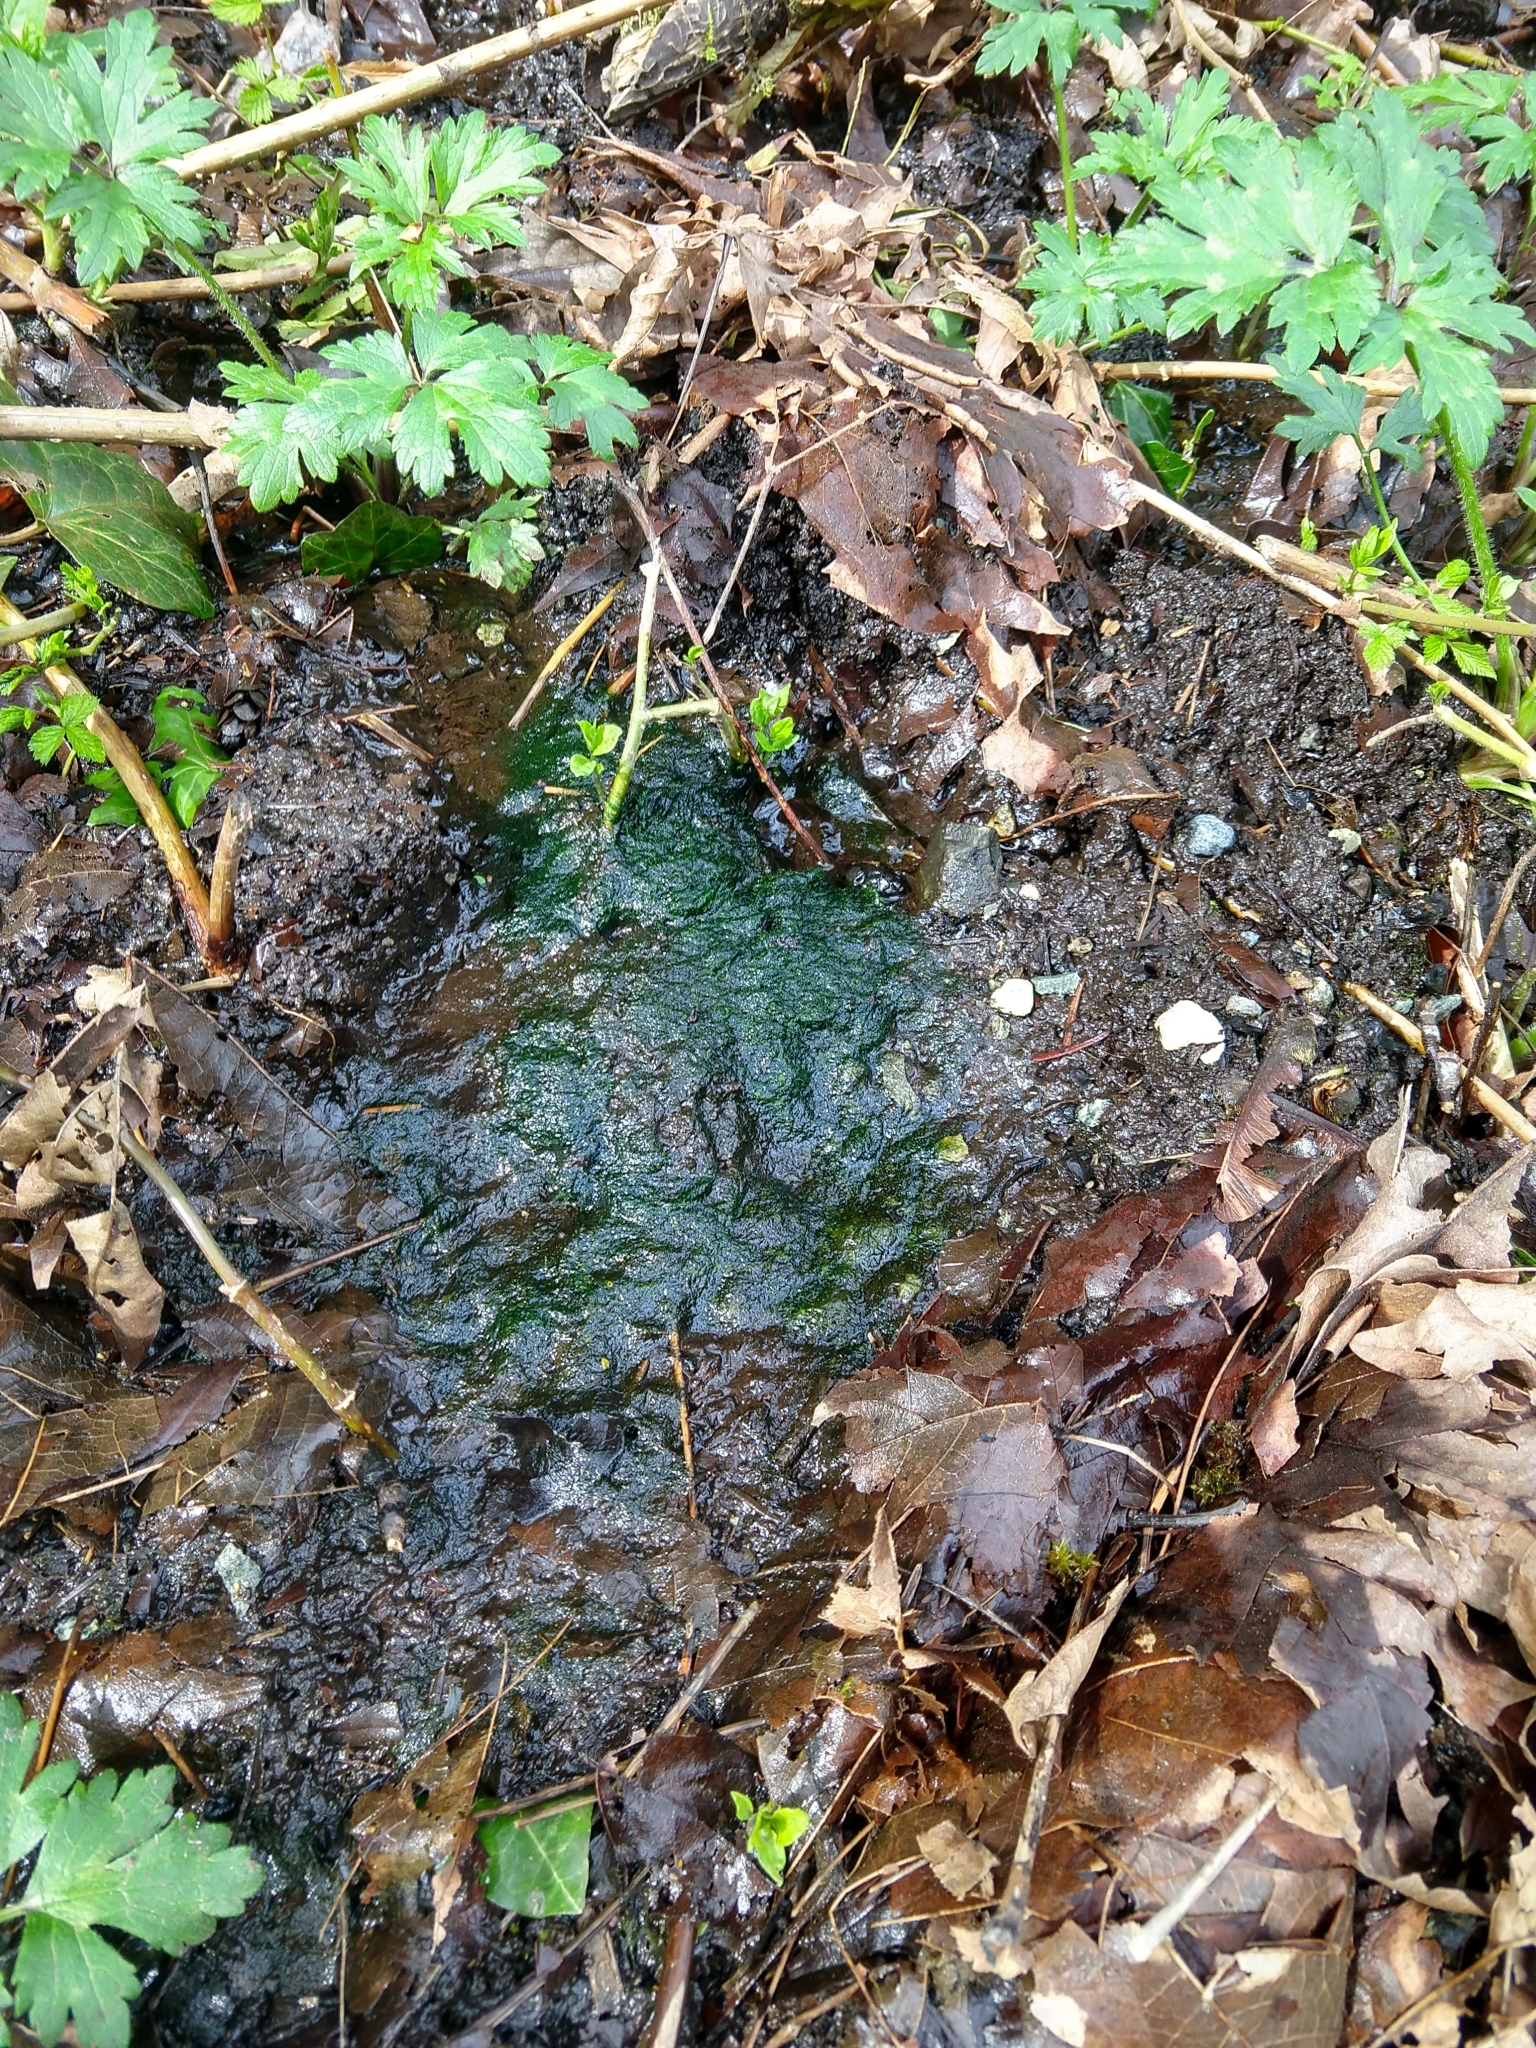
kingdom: Chromista
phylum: Ochrophyta
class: Xanthophyceae
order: Vaucheriales
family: Vaucheriaceae
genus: Vaucheria
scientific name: Vaucheria
